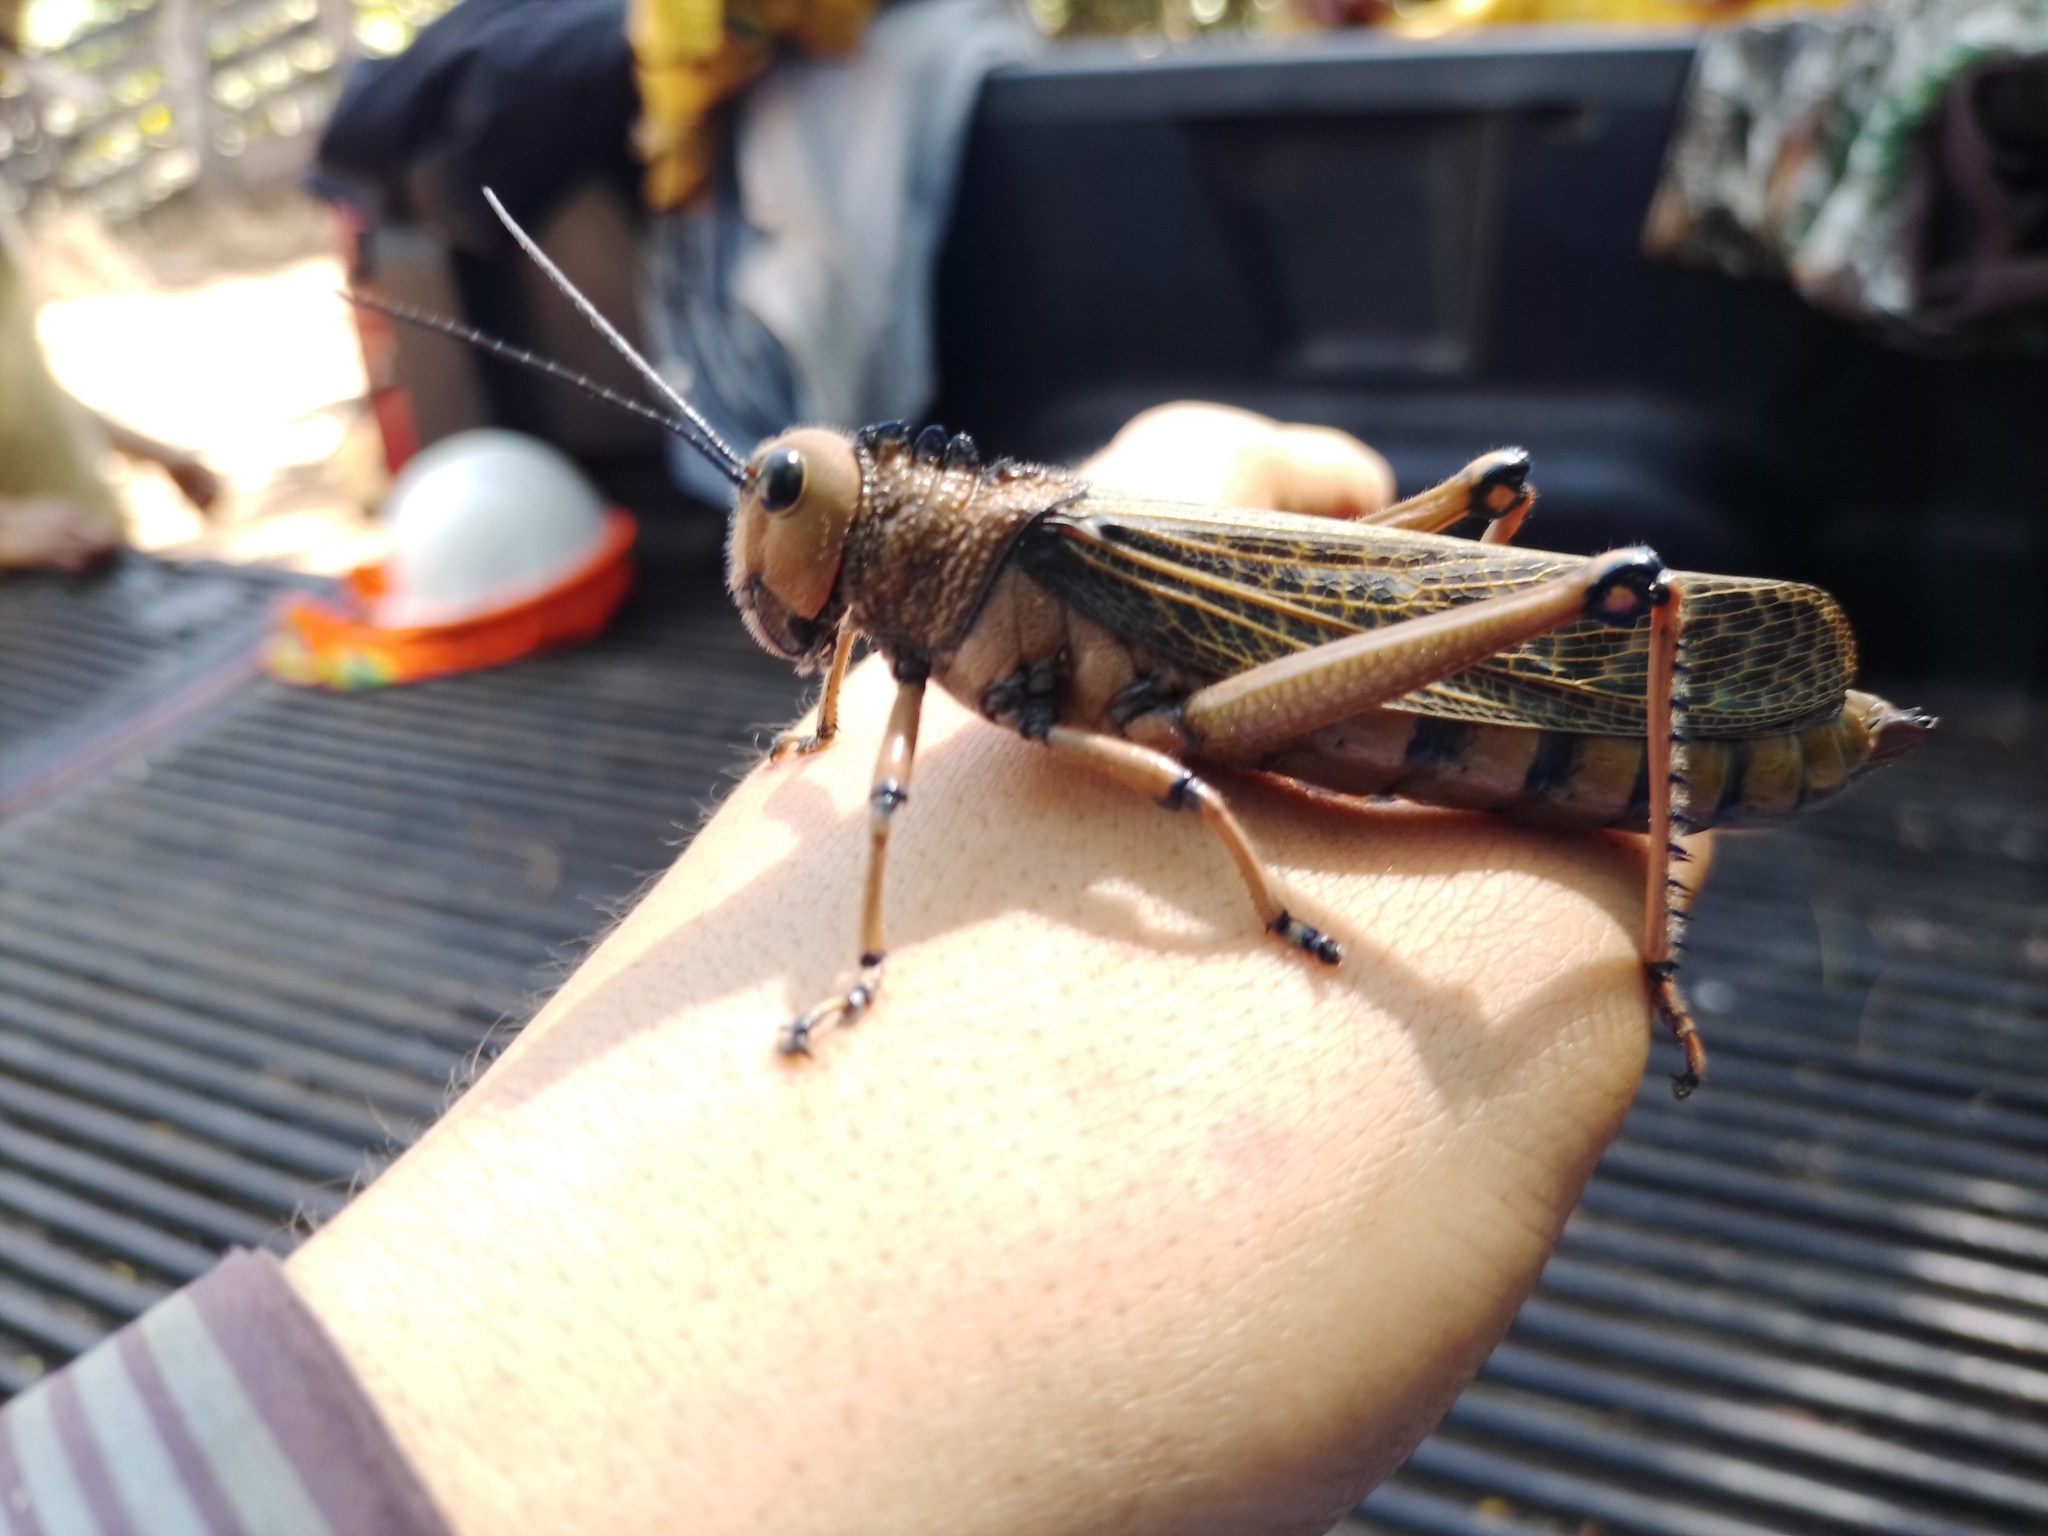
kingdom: Animalia
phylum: Arthropoda
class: Insecta
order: Orthoptera
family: Romaleidae
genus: Tropidacris
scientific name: Tropidacris cristata
